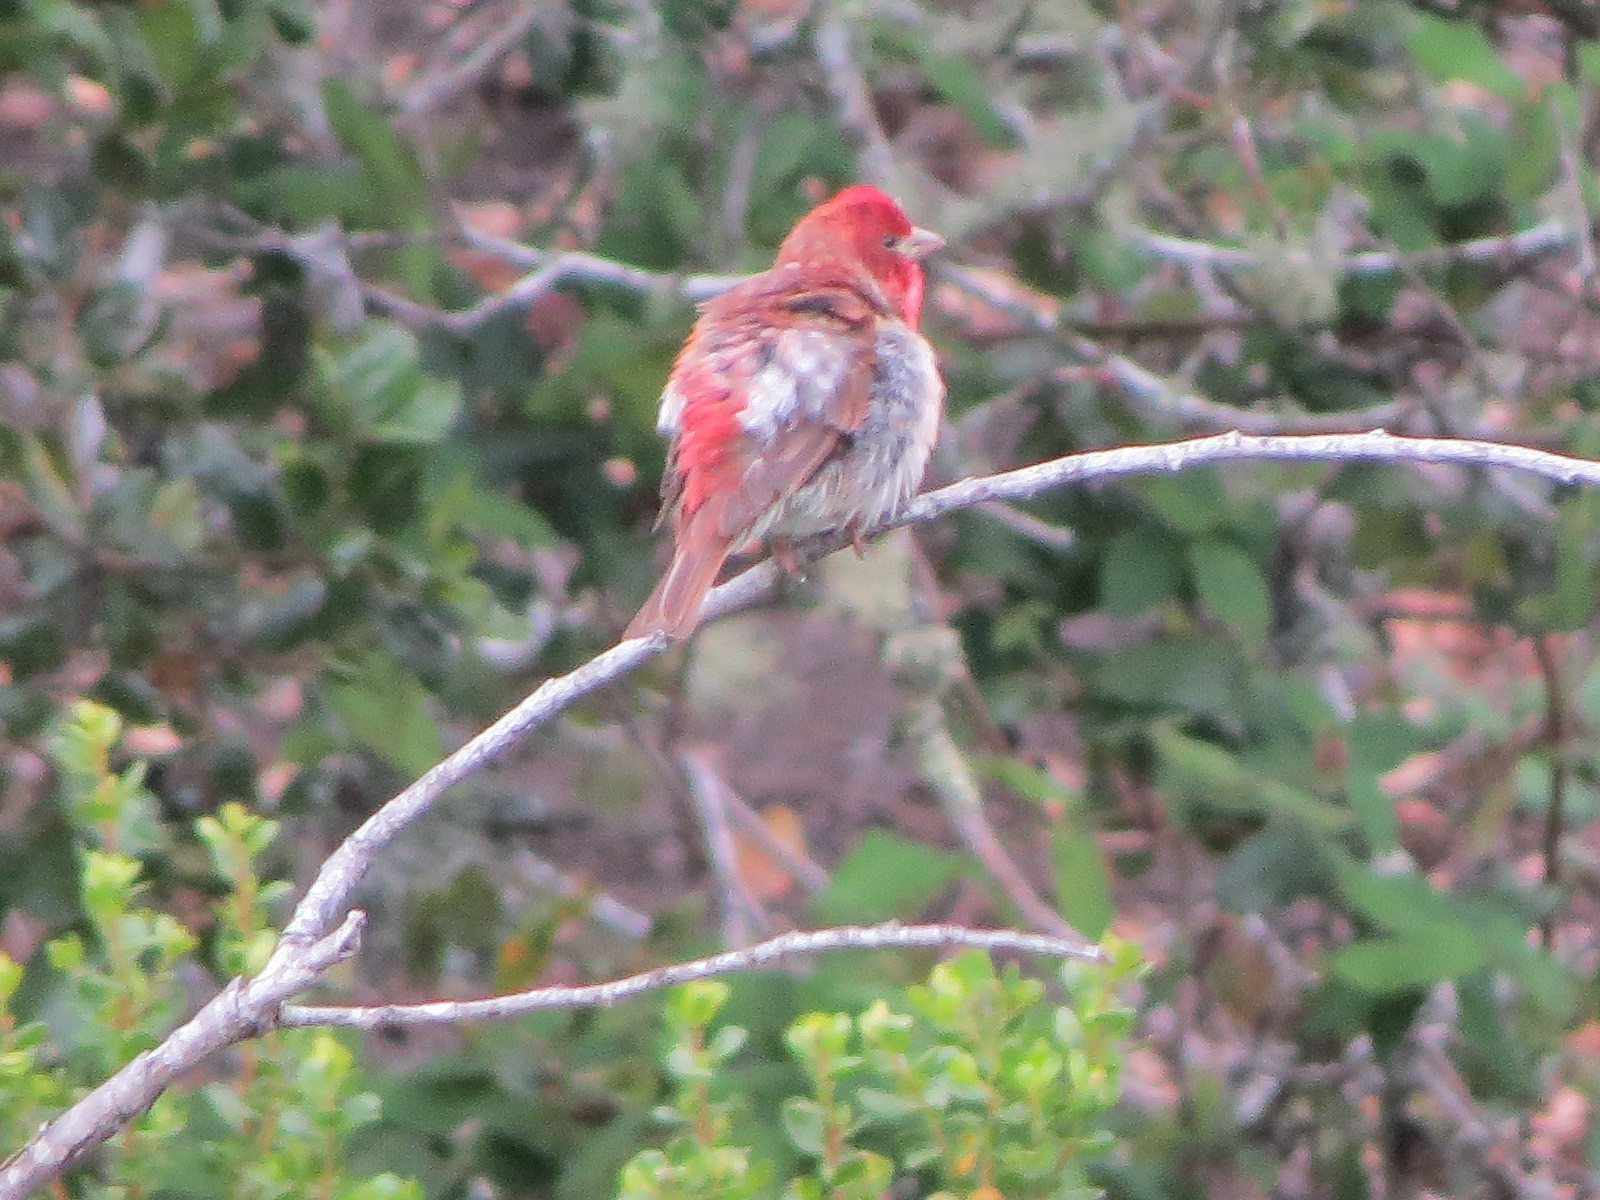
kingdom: Animalia
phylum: Chordata
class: Aves
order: Passeriformes
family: Fringillidae
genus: Haemorhous
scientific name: Haemorhous purpureus
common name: Purple finch
